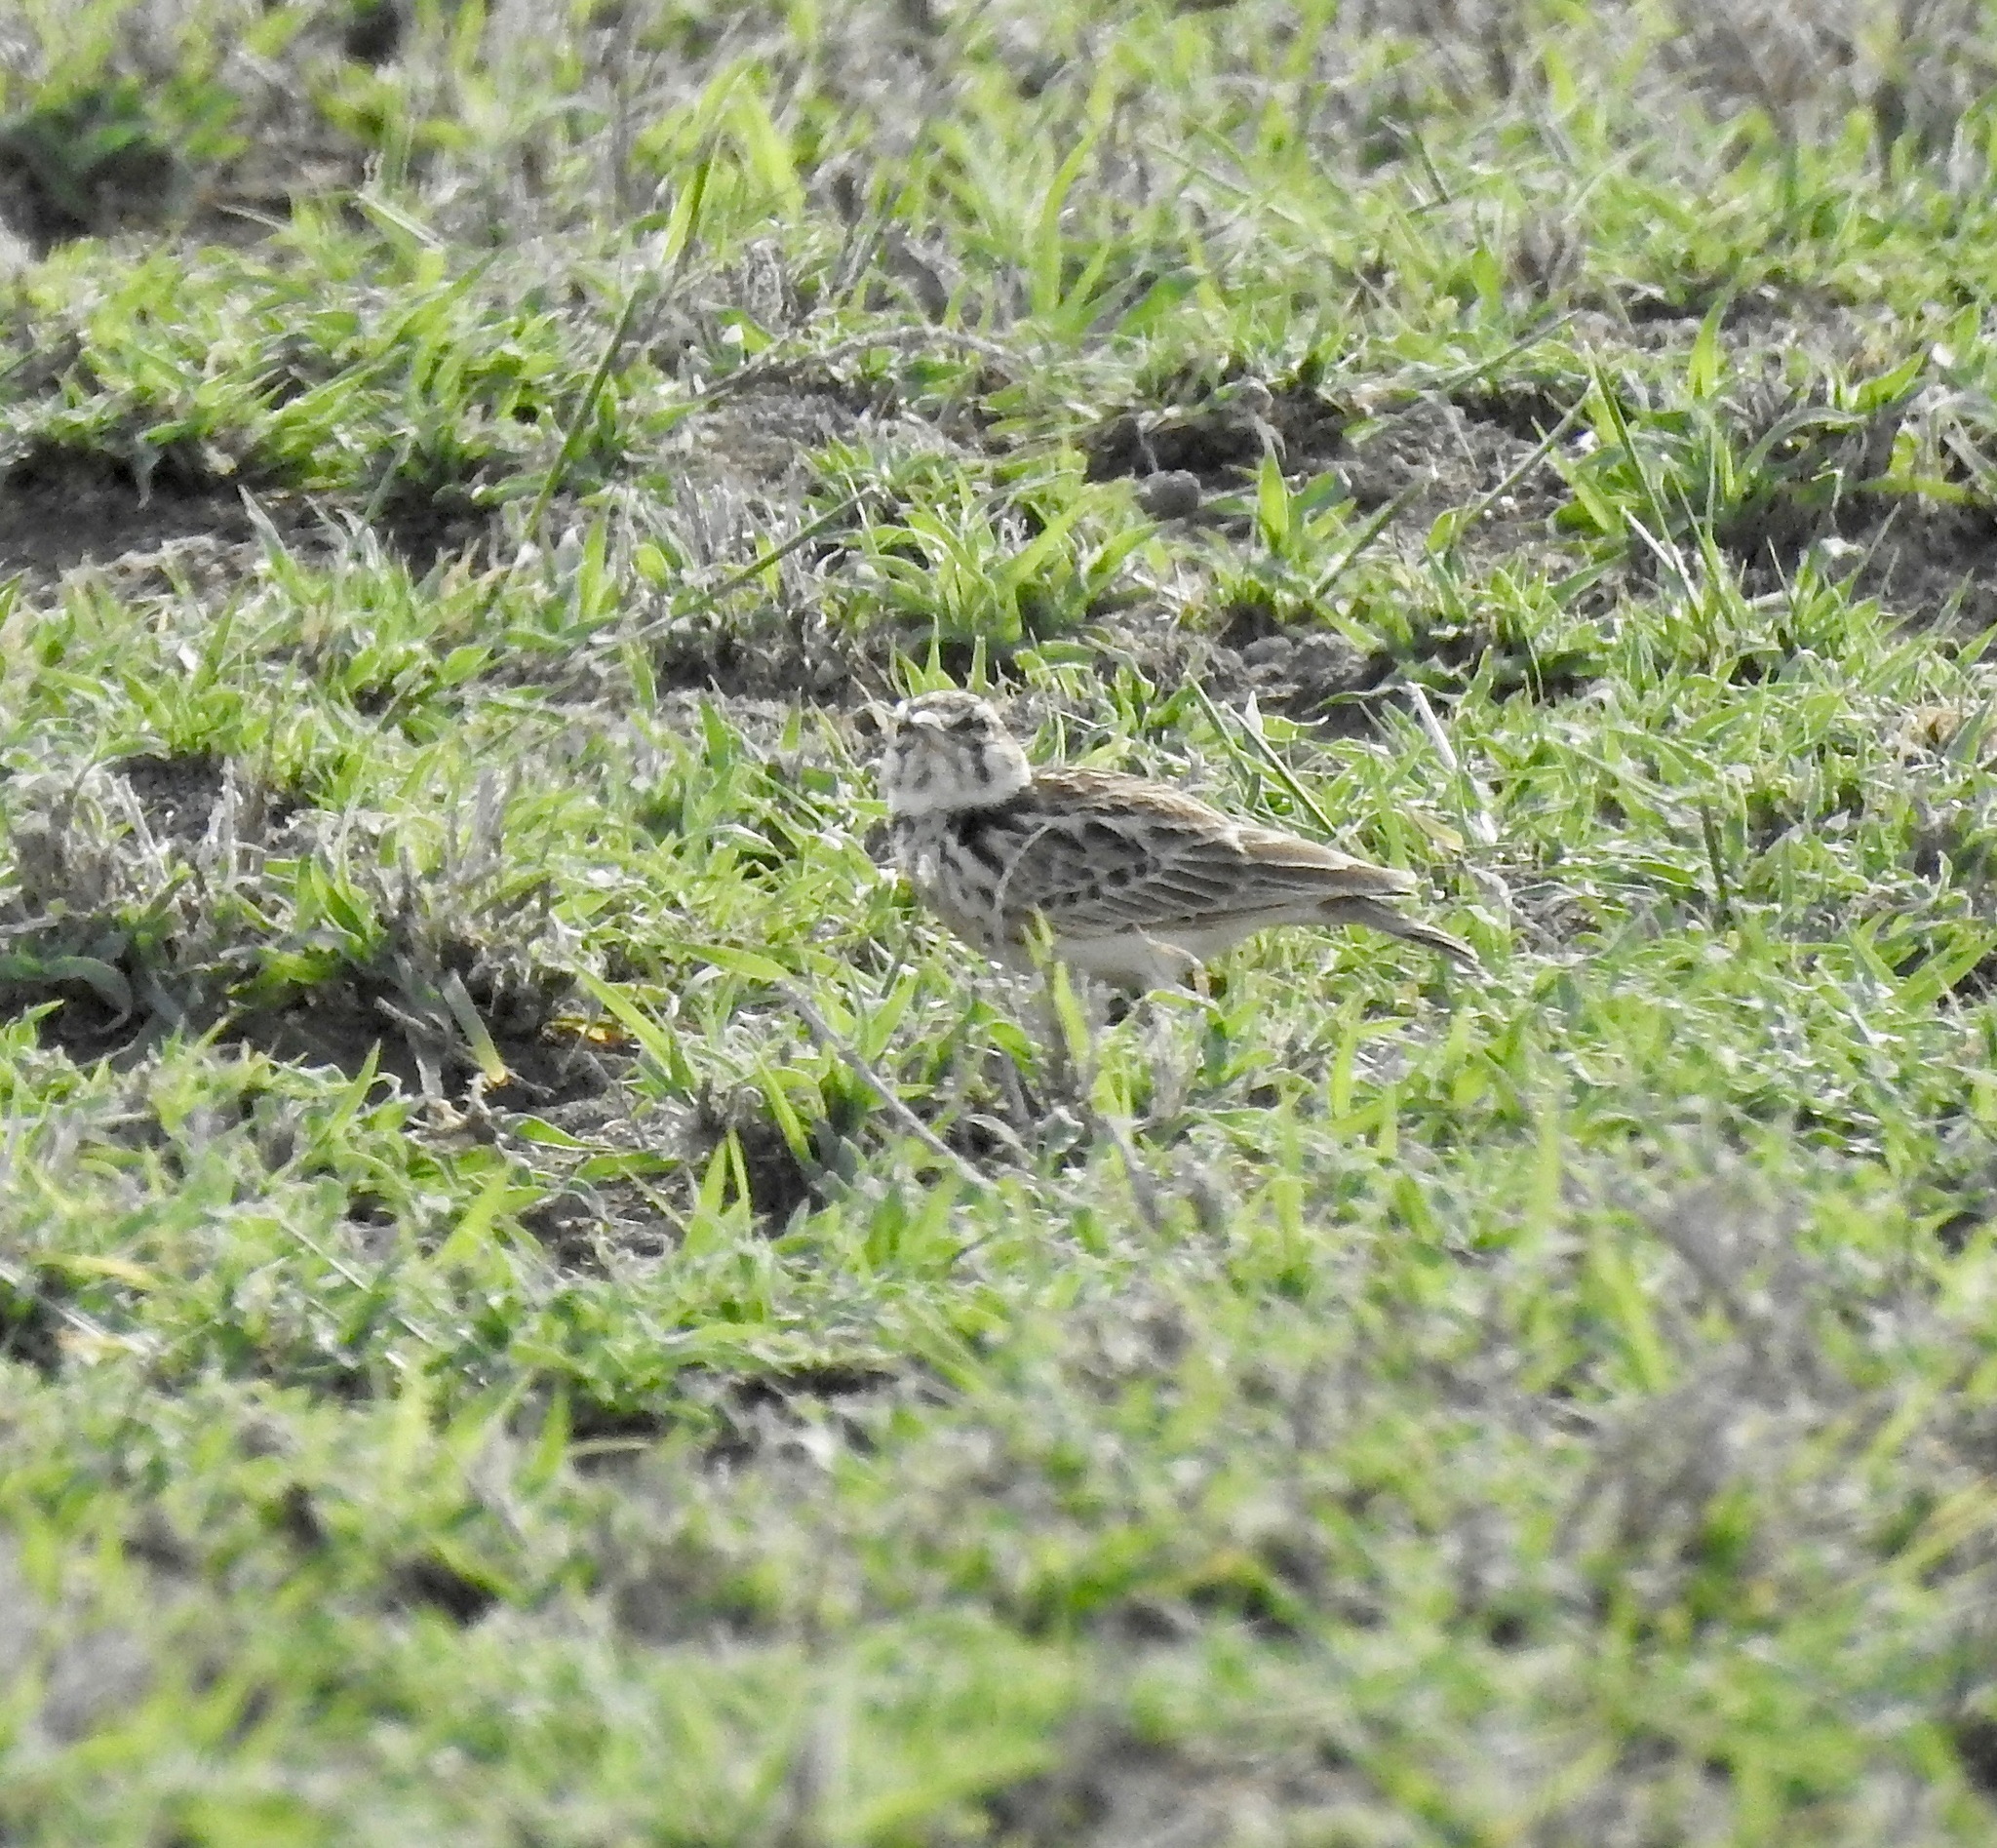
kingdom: Animalia
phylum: Chordata
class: Aves
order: Passeriformes
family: Alaudidae
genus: Pseudalaemon
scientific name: Pseudalaemon fremantlii
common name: Short-tailed lark
